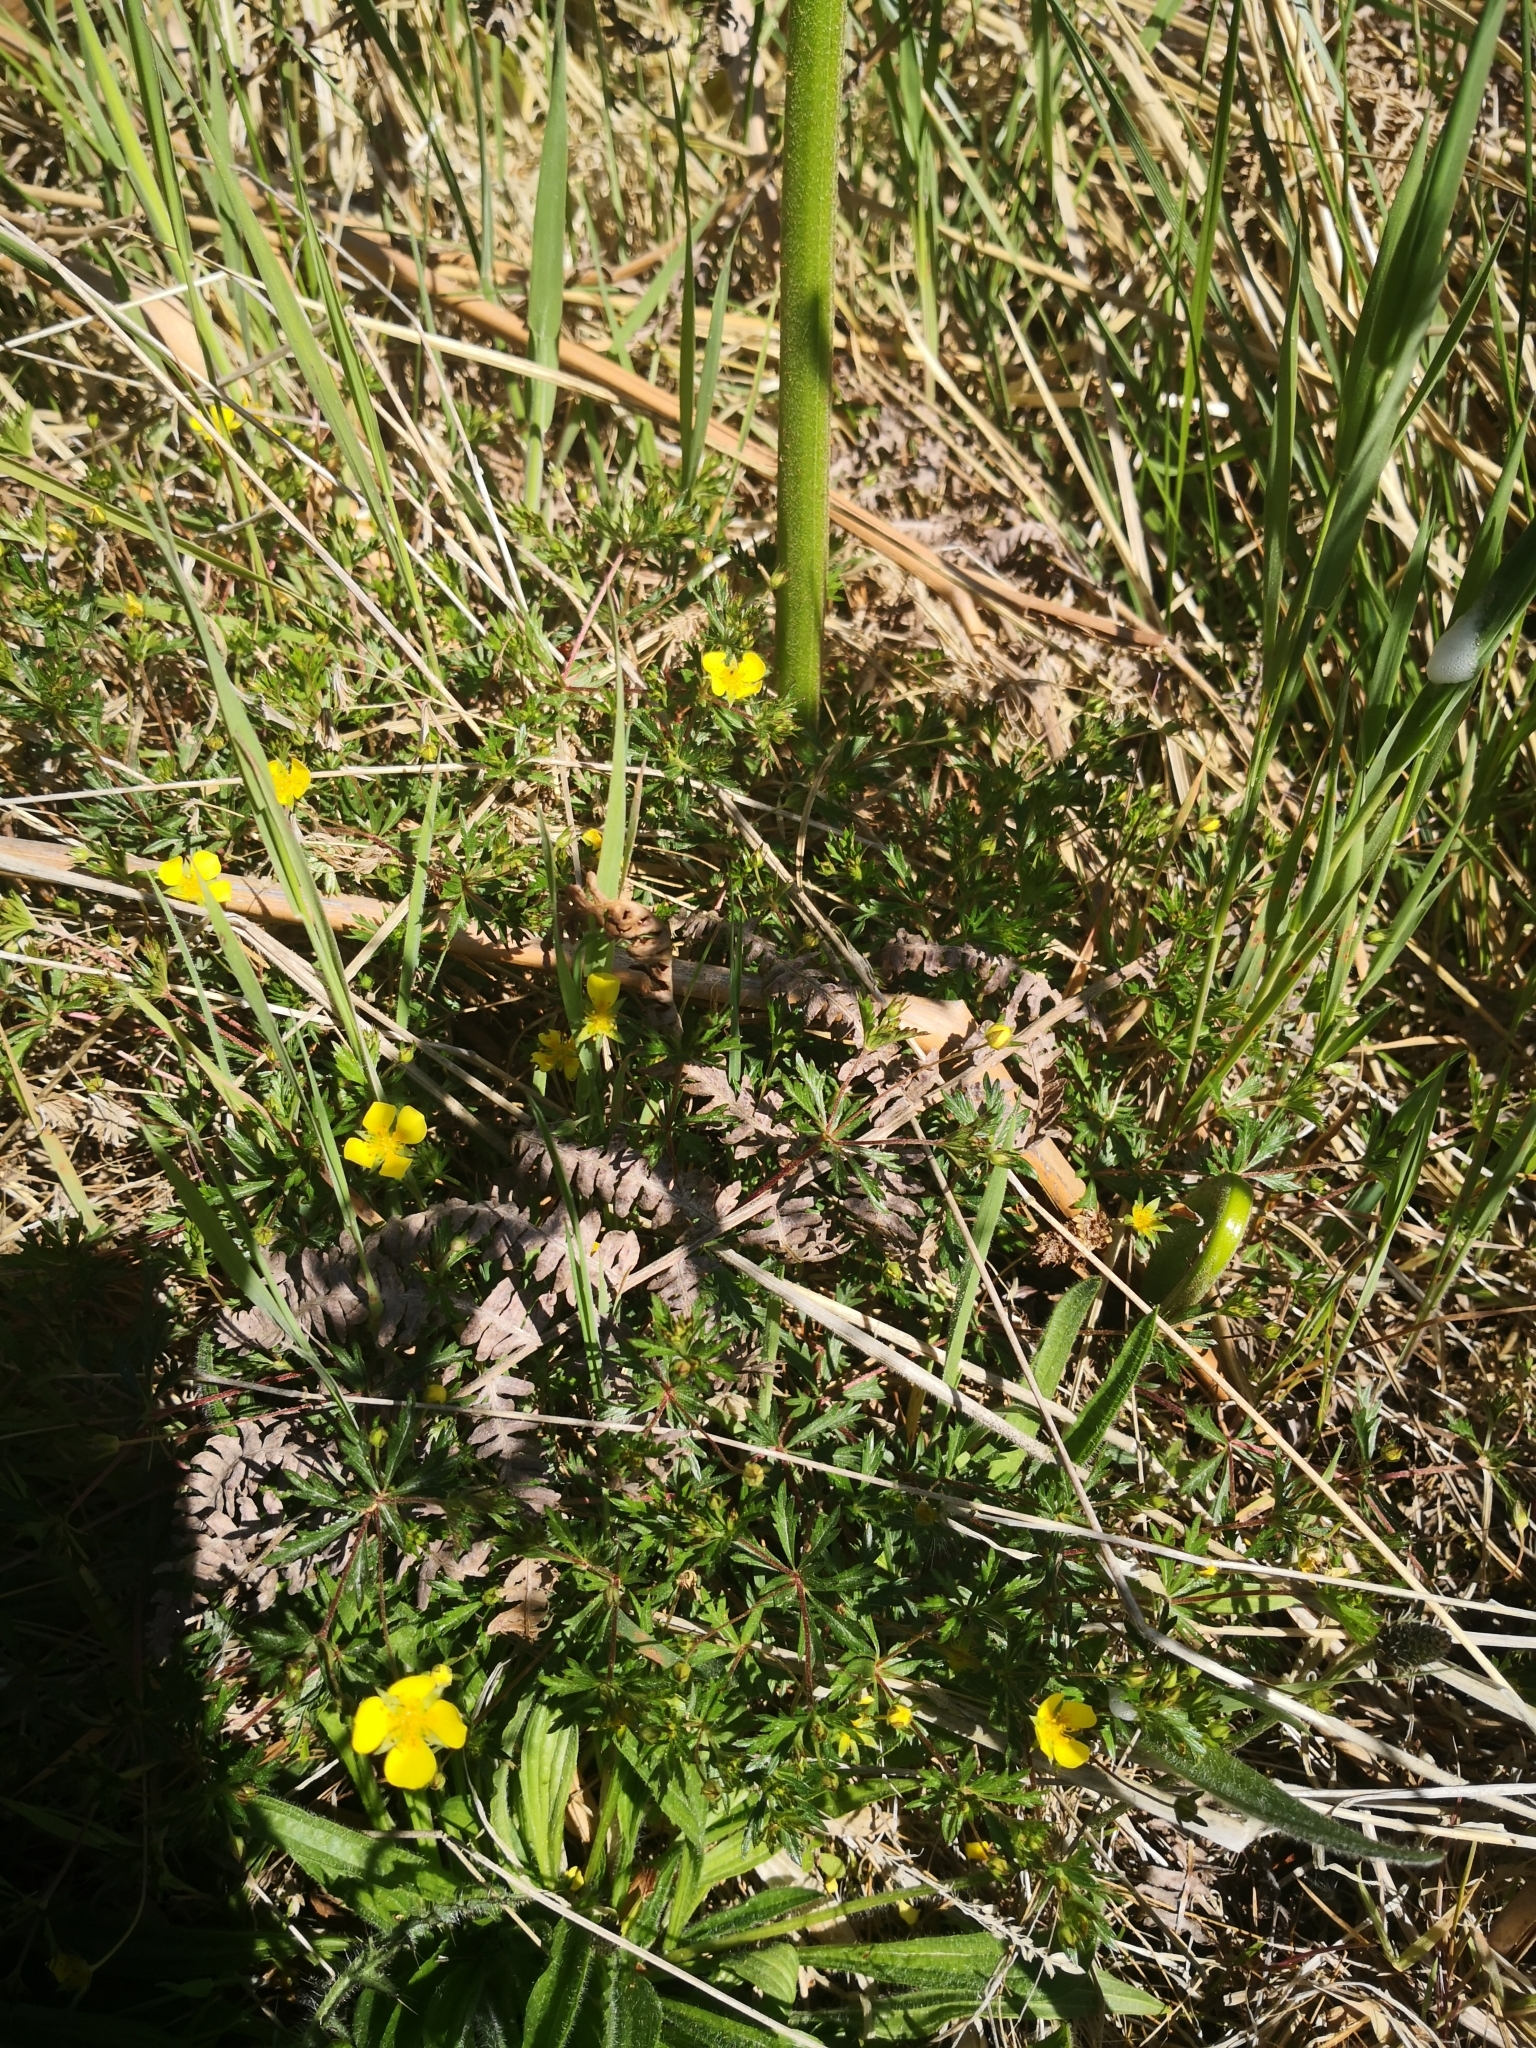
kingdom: Plantae
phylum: Tracheophyta
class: Magnoliopsida
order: Rosales
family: Rosaceae
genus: Potentilla
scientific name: Potentilla erecta
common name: Tormentil
